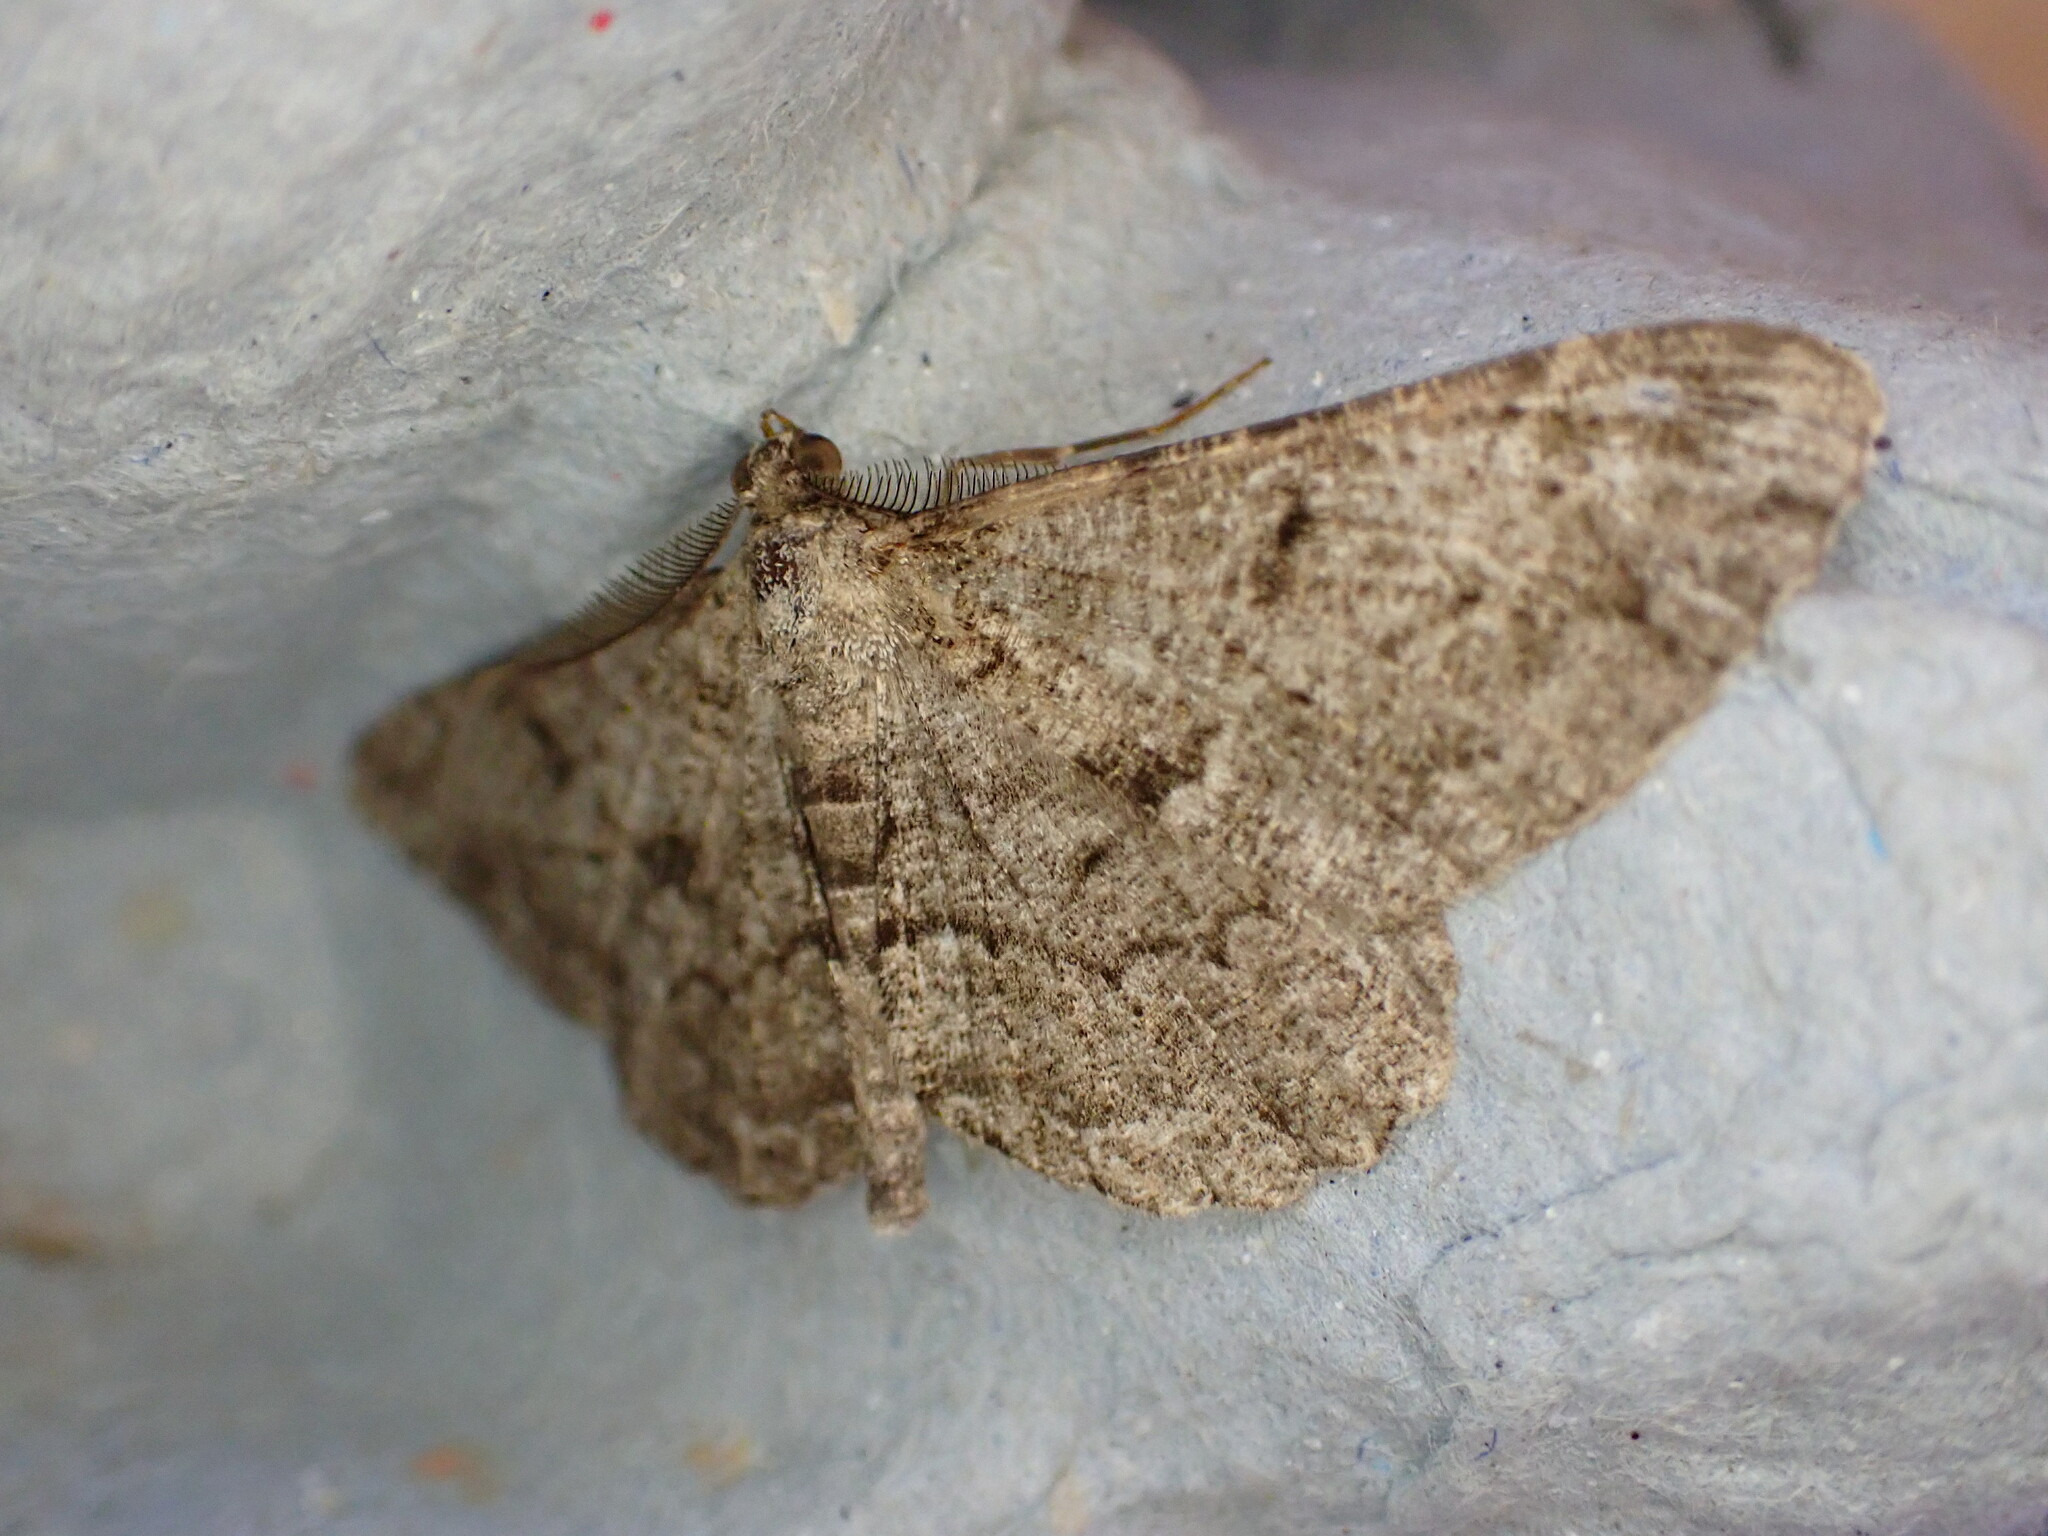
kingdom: Animalia
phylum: Arthropoda
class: Insecta
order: Lepidoptera
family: Geometridae
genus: Peribatodes
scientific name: Peribatodes rhomboidaria
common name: Willow beauty
